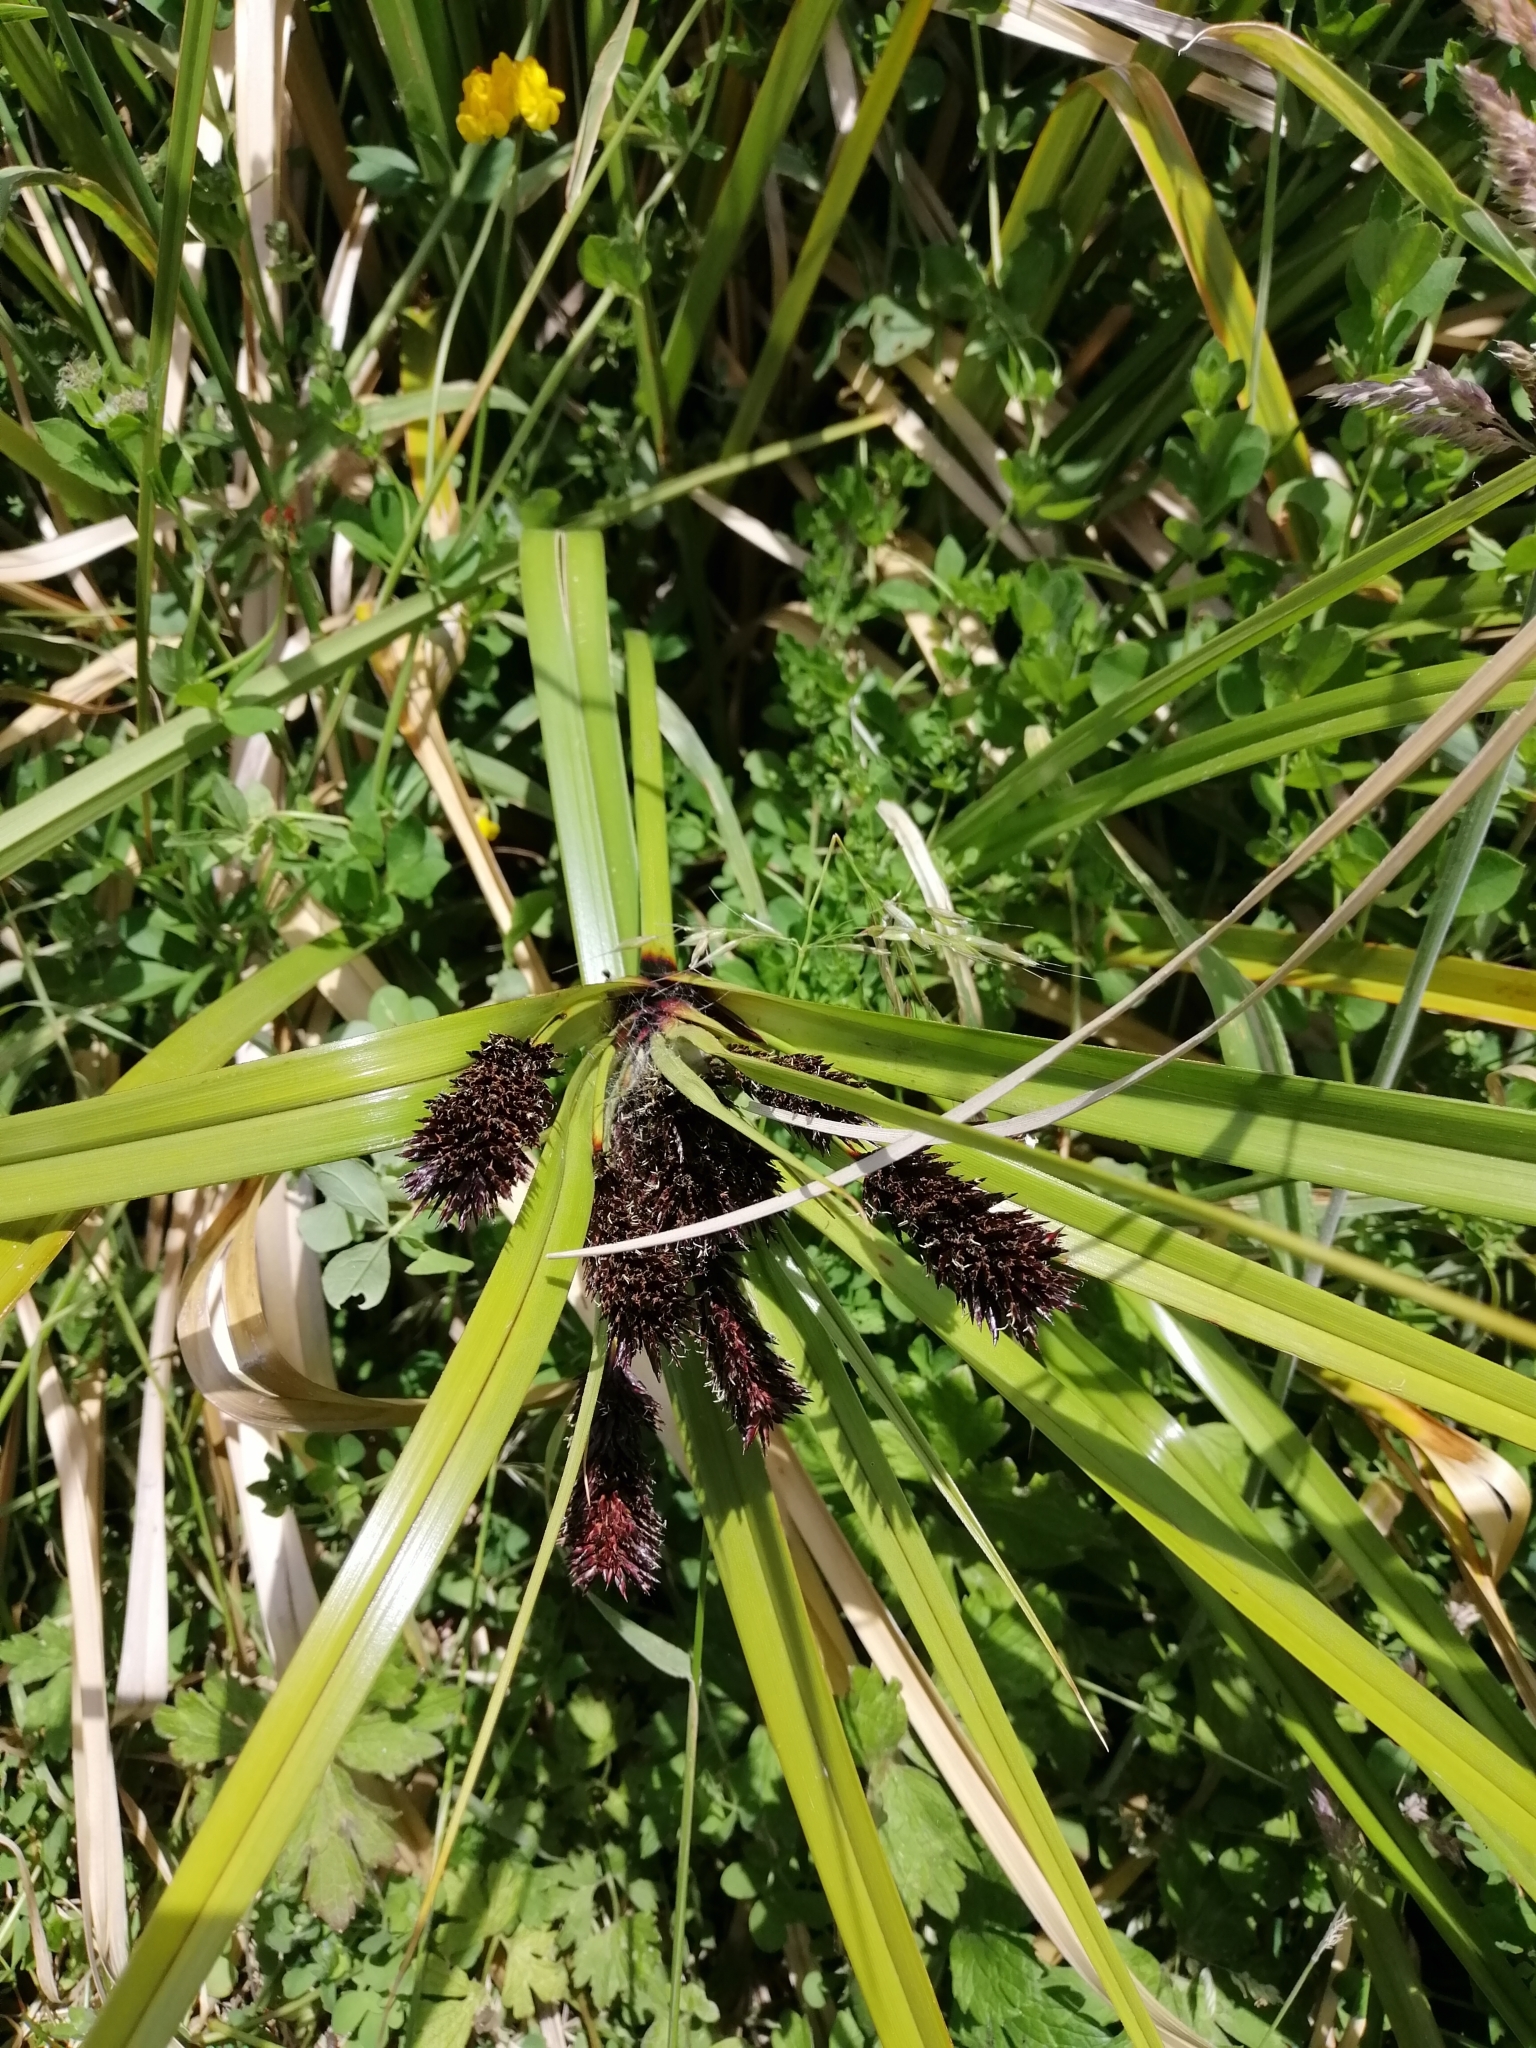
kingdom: Plantae
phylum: Tracheophyta
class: Liliopsida
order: Poales
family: Cyperaceae
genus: Cyperus
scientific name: Cyperus ustulatus
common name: Giant umbrella-sedge
